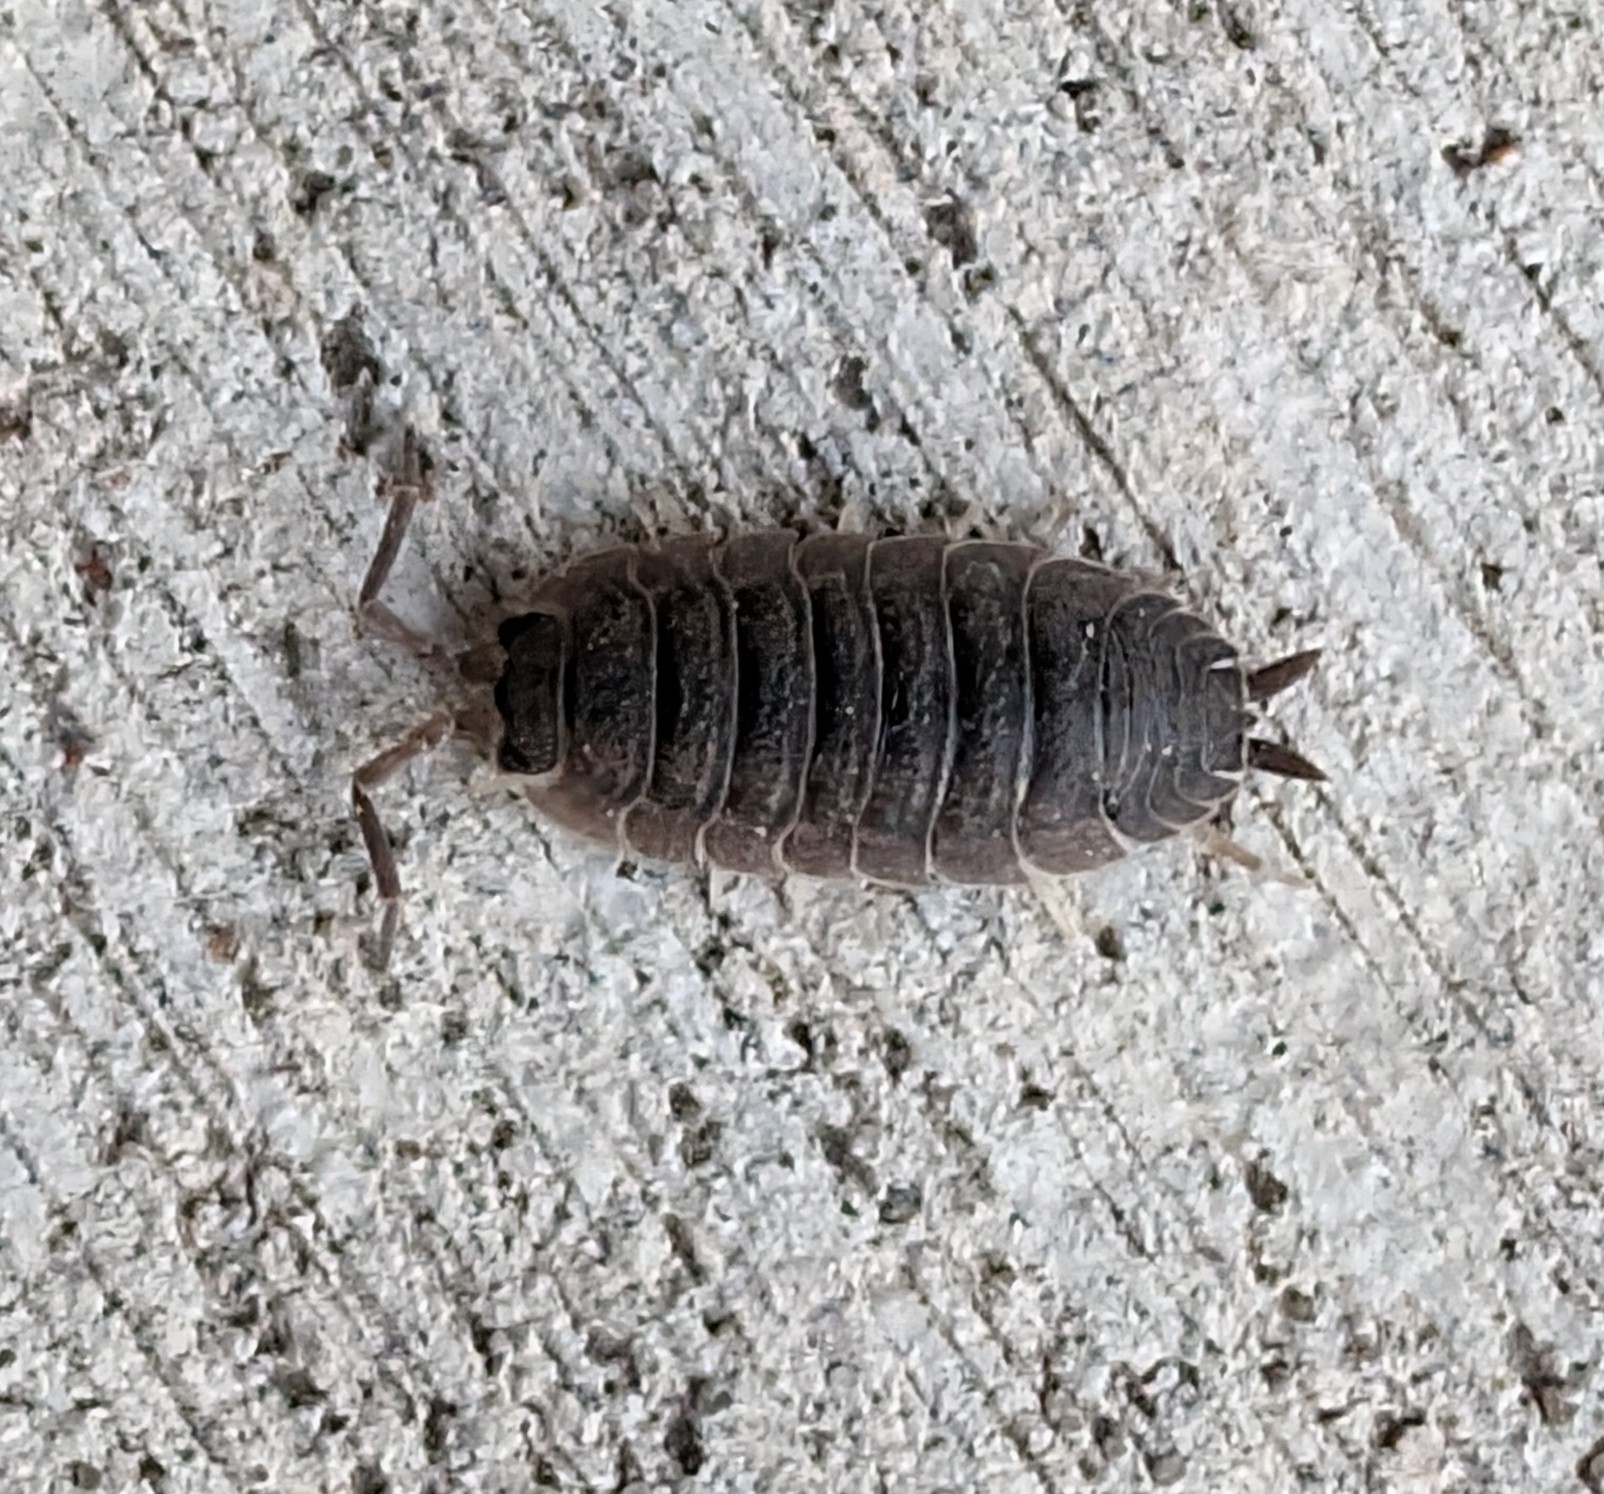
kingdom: Animalia
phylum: Arthropoda
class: Malacostraca
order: Isopoda
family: Porcellionidae
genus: Porcellio
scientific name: Porcellio scaber
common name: Common rough woodlouse
